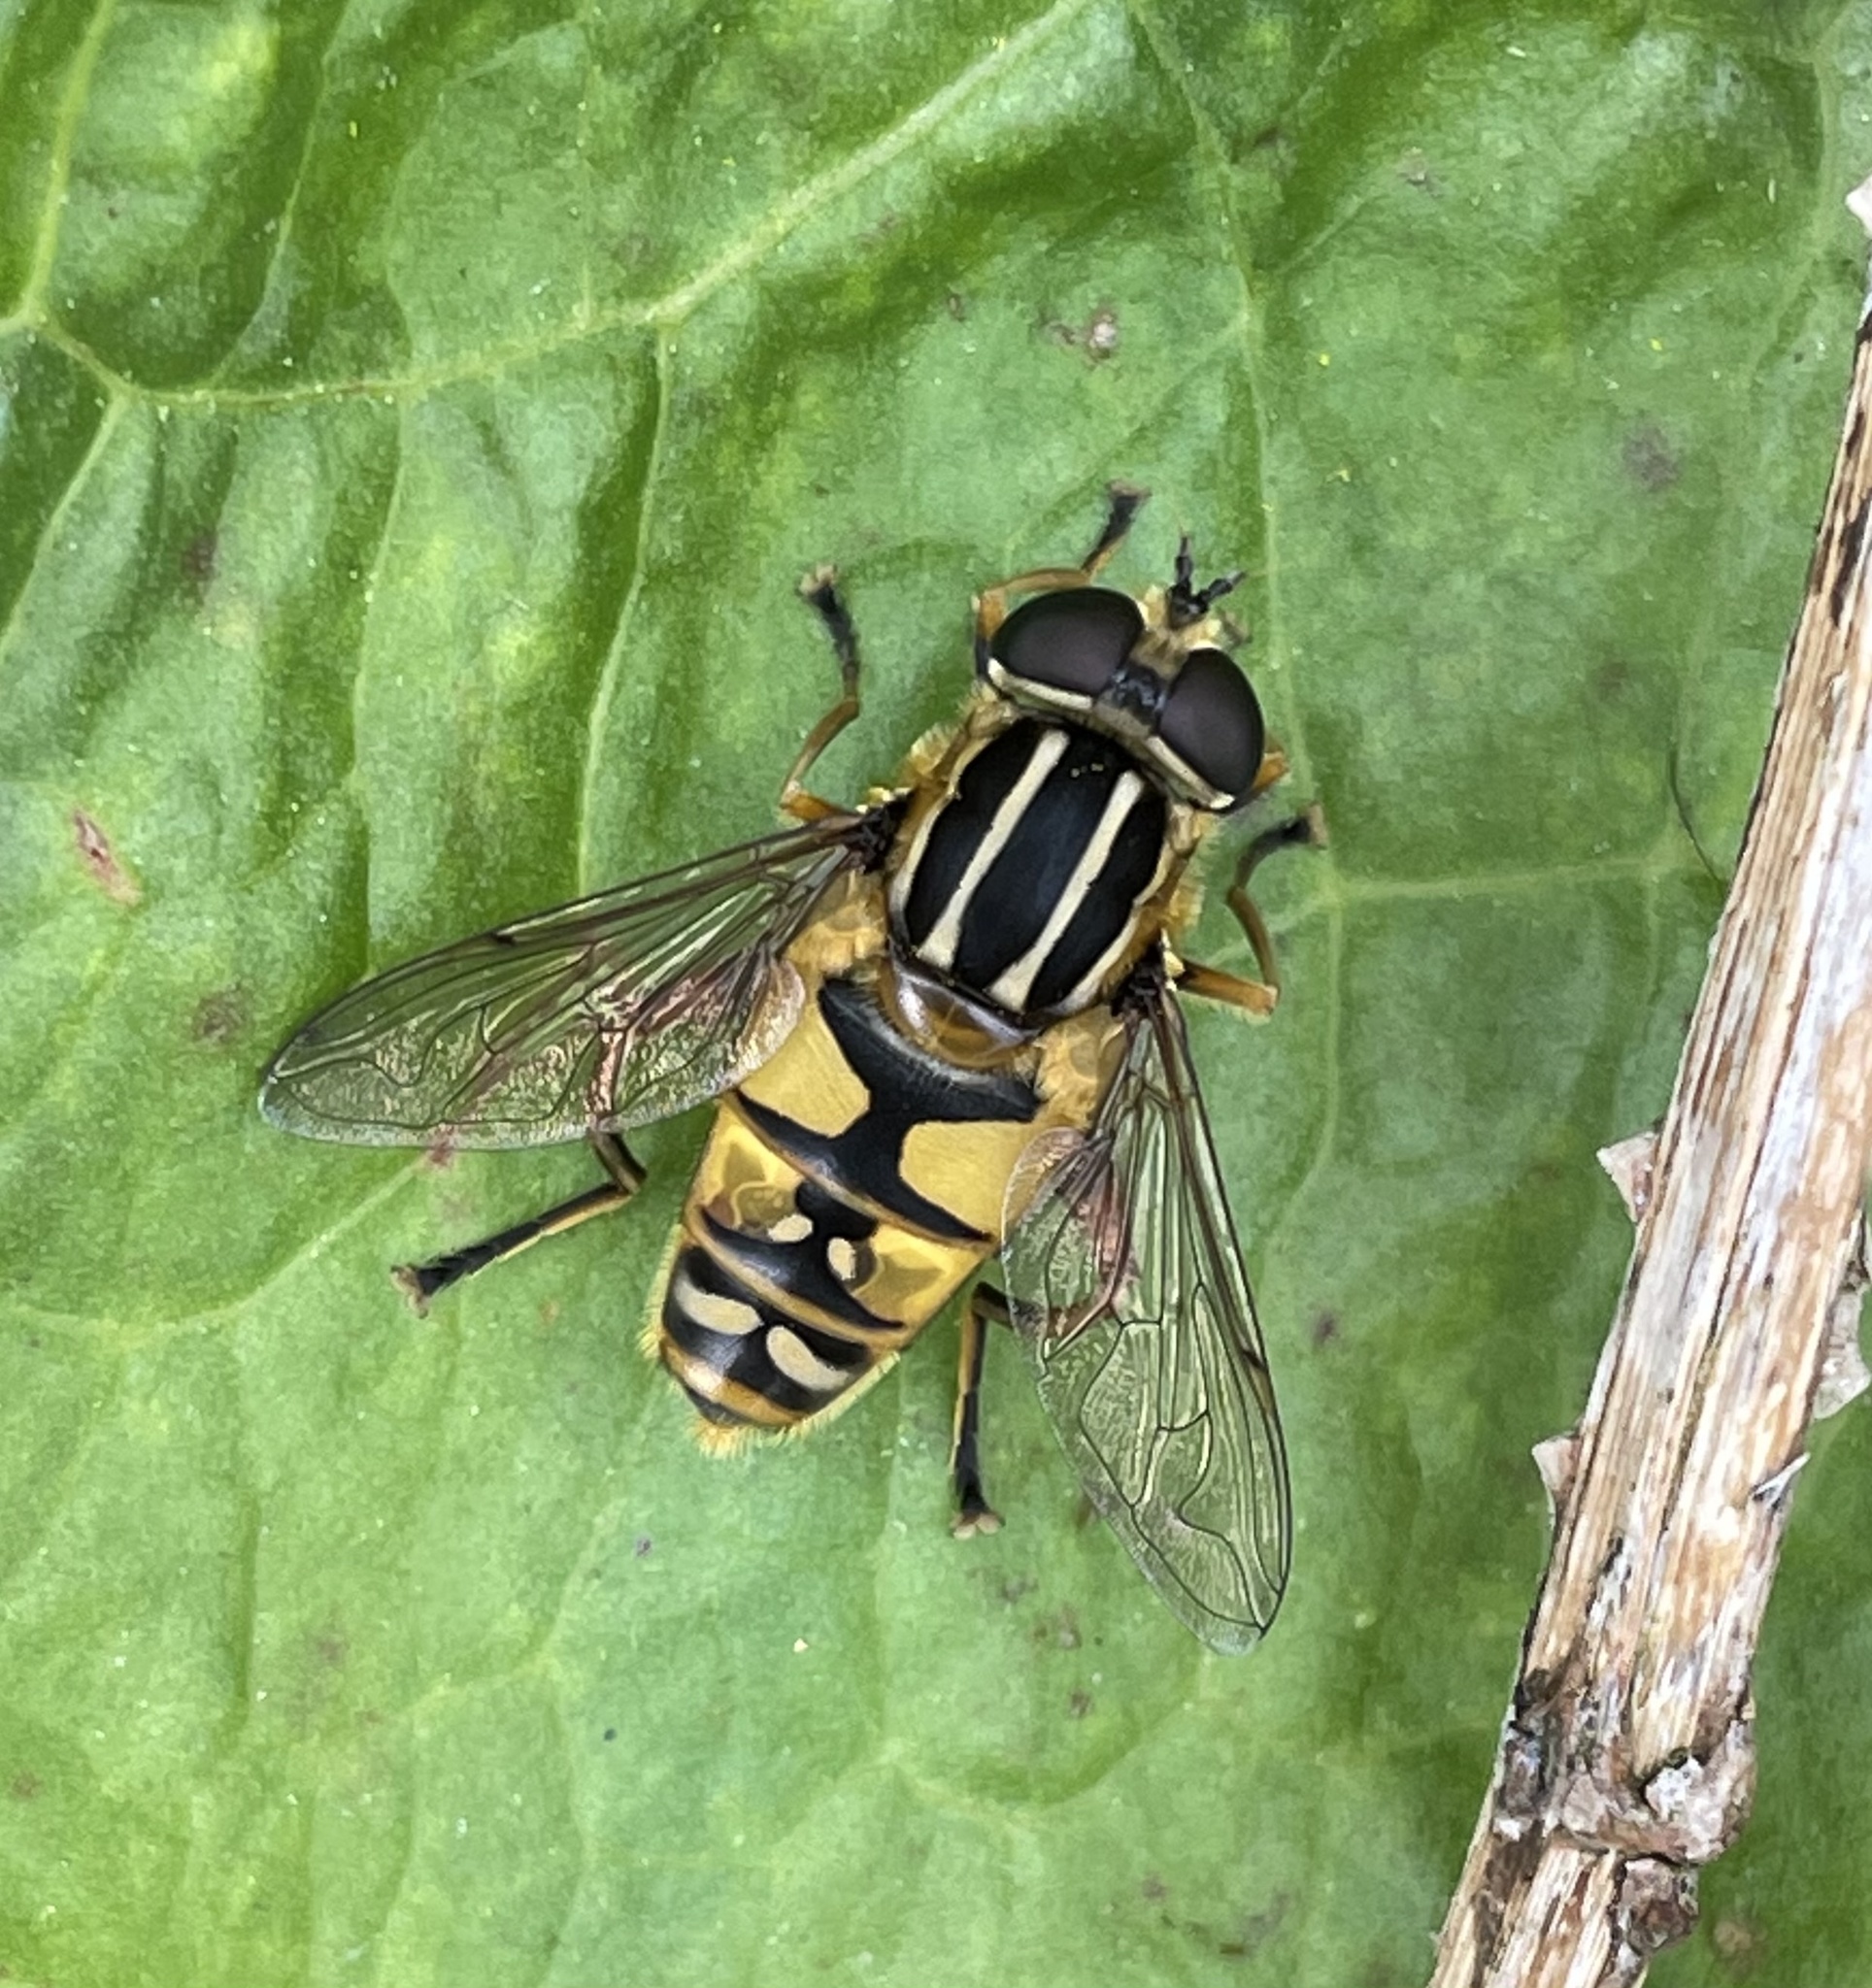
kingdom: Animalia
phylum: Arthropoda
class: Insecta
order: Diptera
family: Syrphidae
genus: Helophilus
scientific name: Helophilus pendulus
